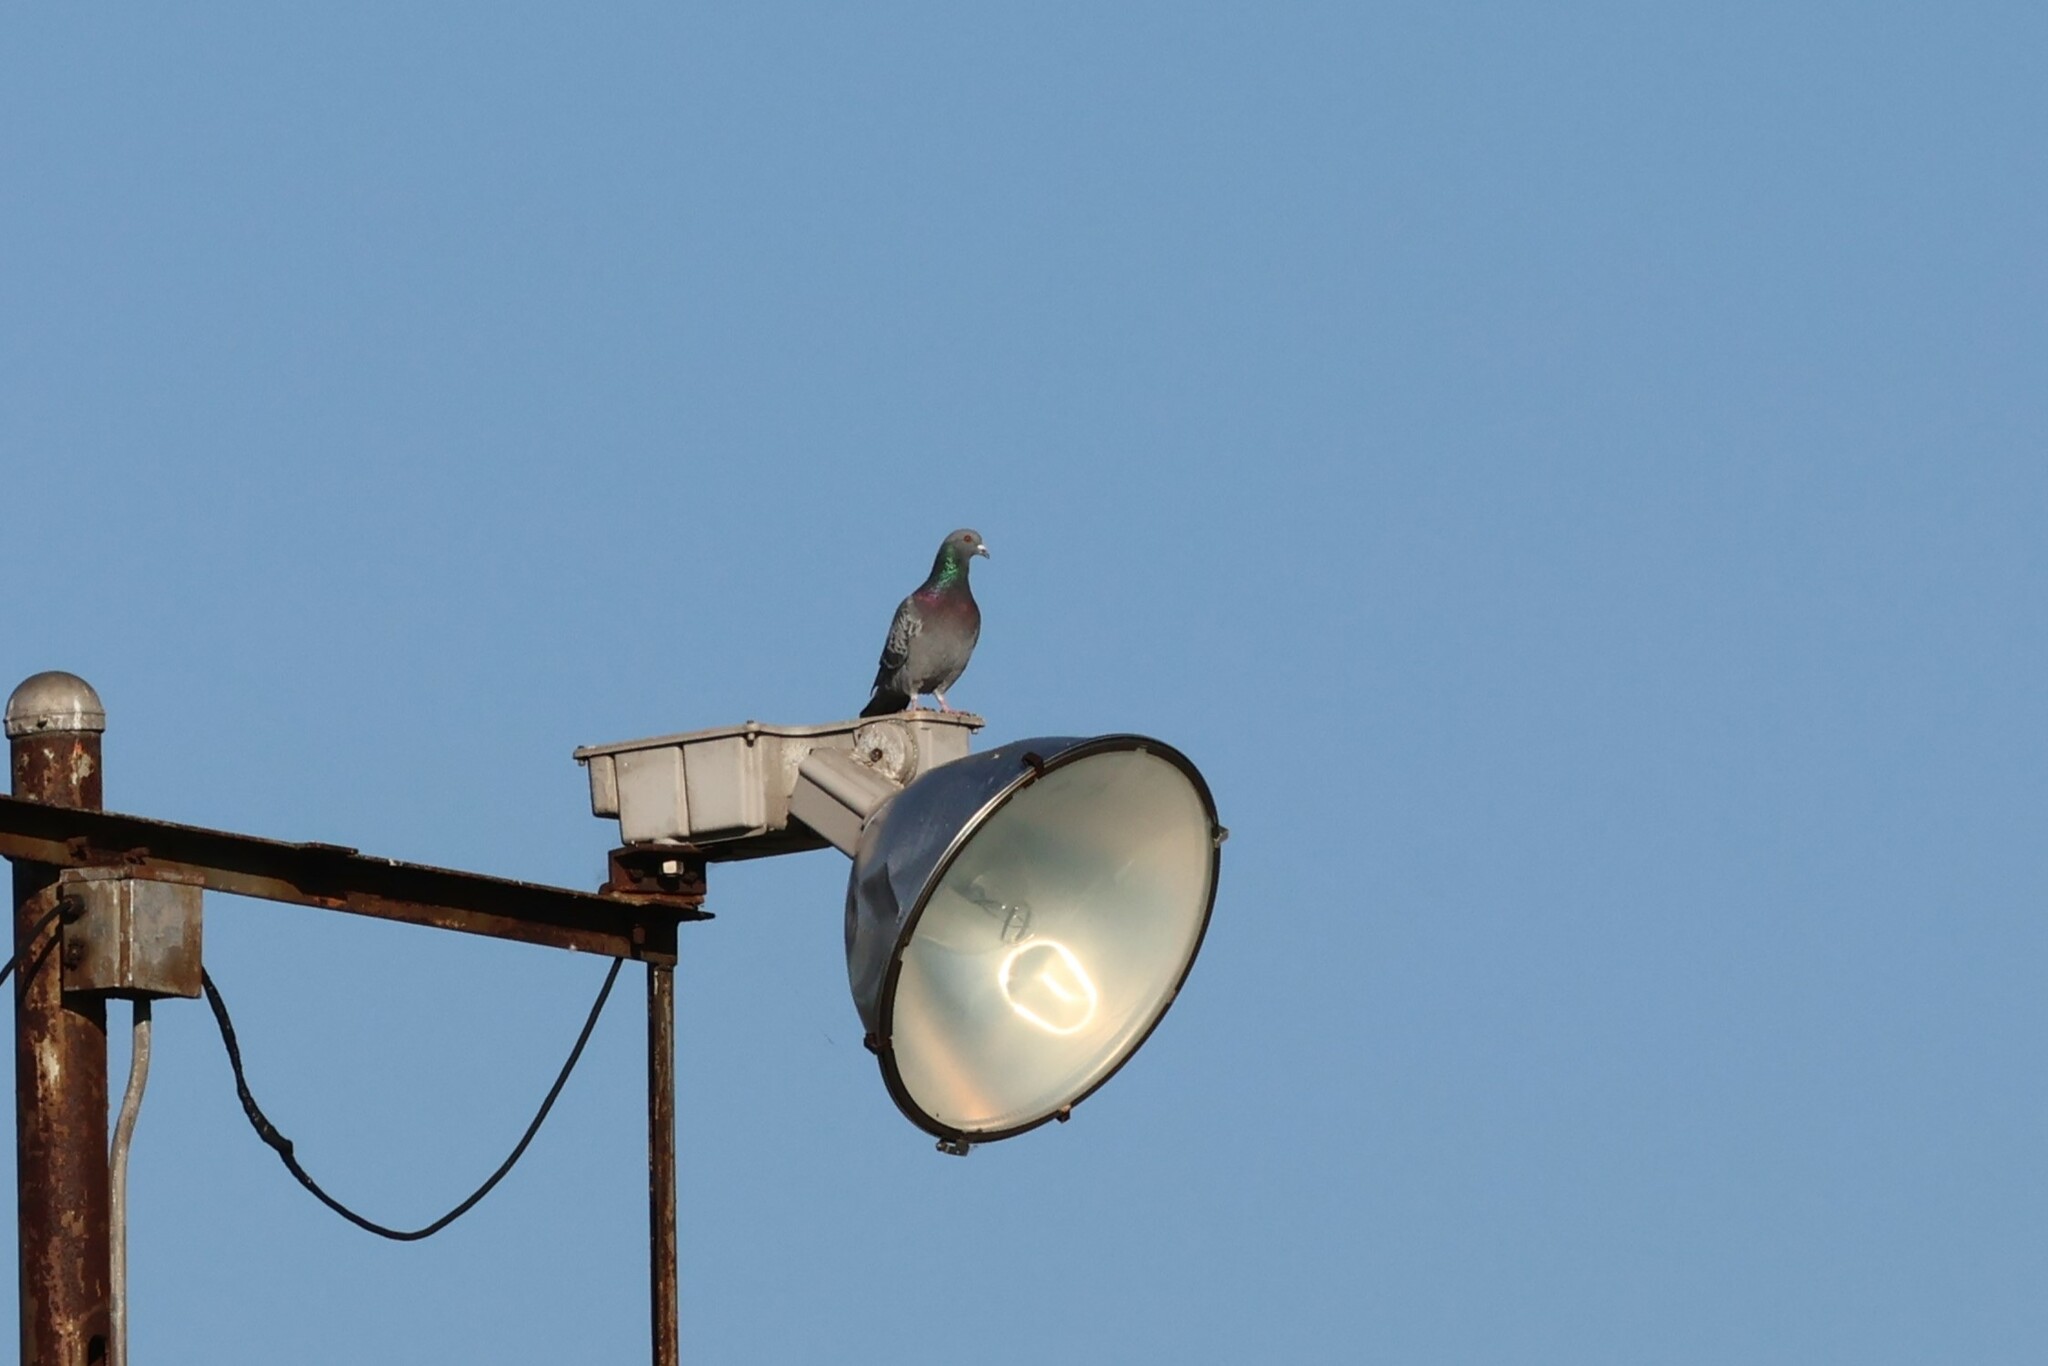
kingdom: Animalia
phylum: Chordata
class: Aves
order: Columbiformes
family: Columbidae
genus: Columba
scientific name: Columba livia
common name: Rock pigeon
